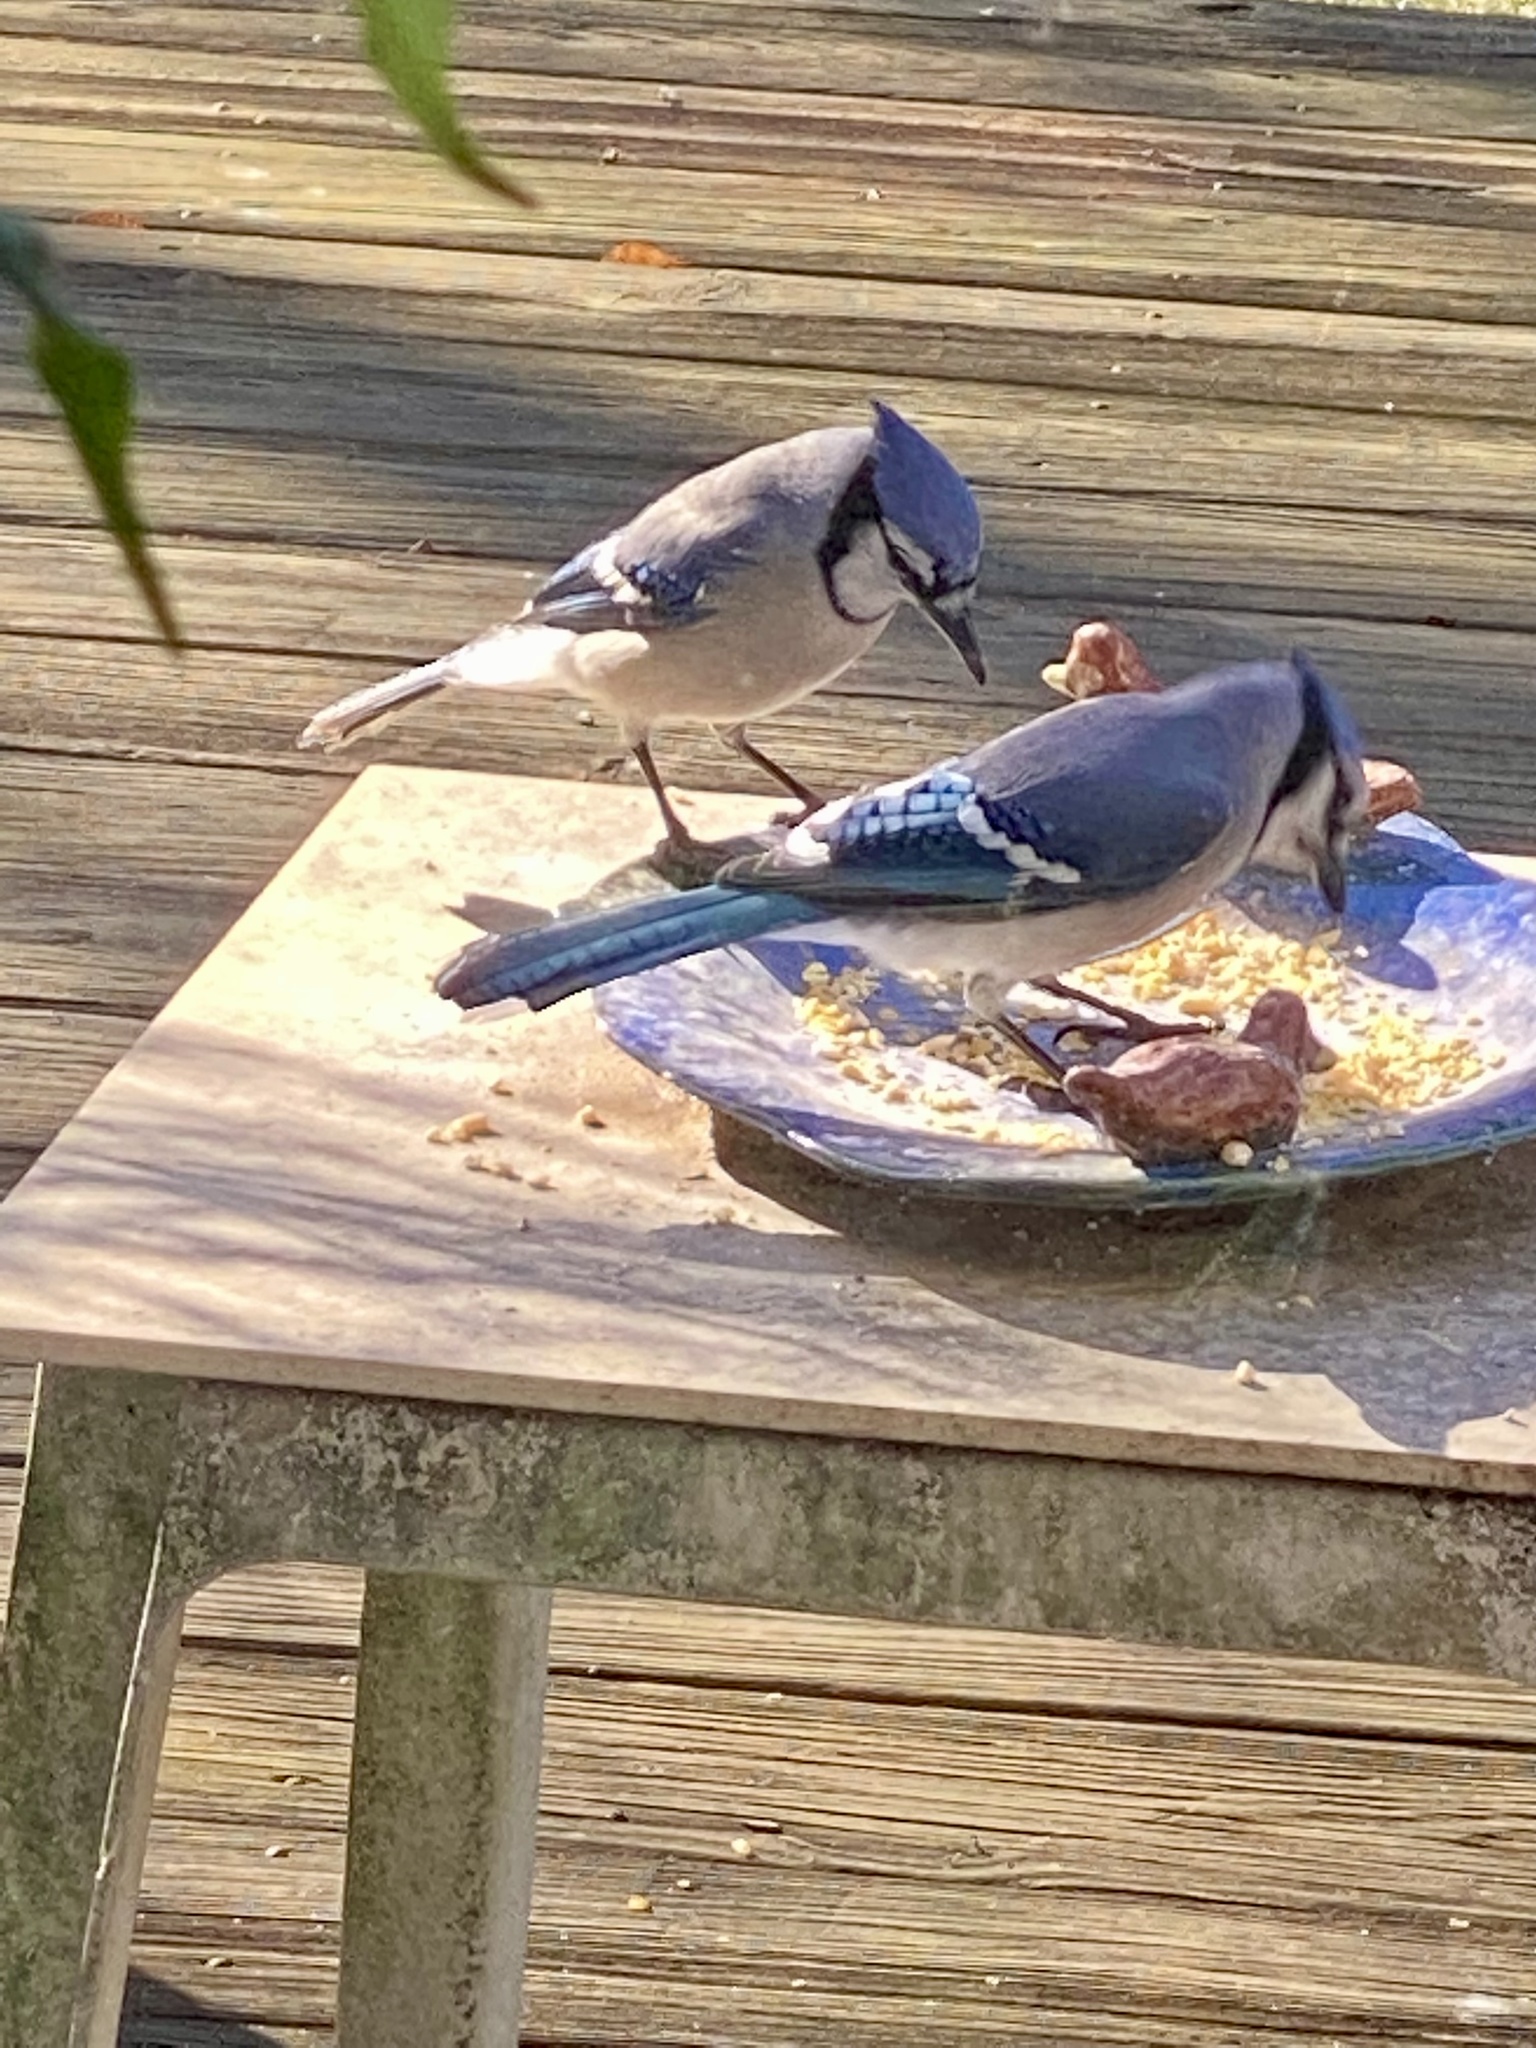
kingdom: Animalia
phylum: Chordata
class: Aves
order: Passeriformes
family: Corvidae
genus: Cyanocitta
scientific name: Cyanocitta cristata
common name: Blue jay
